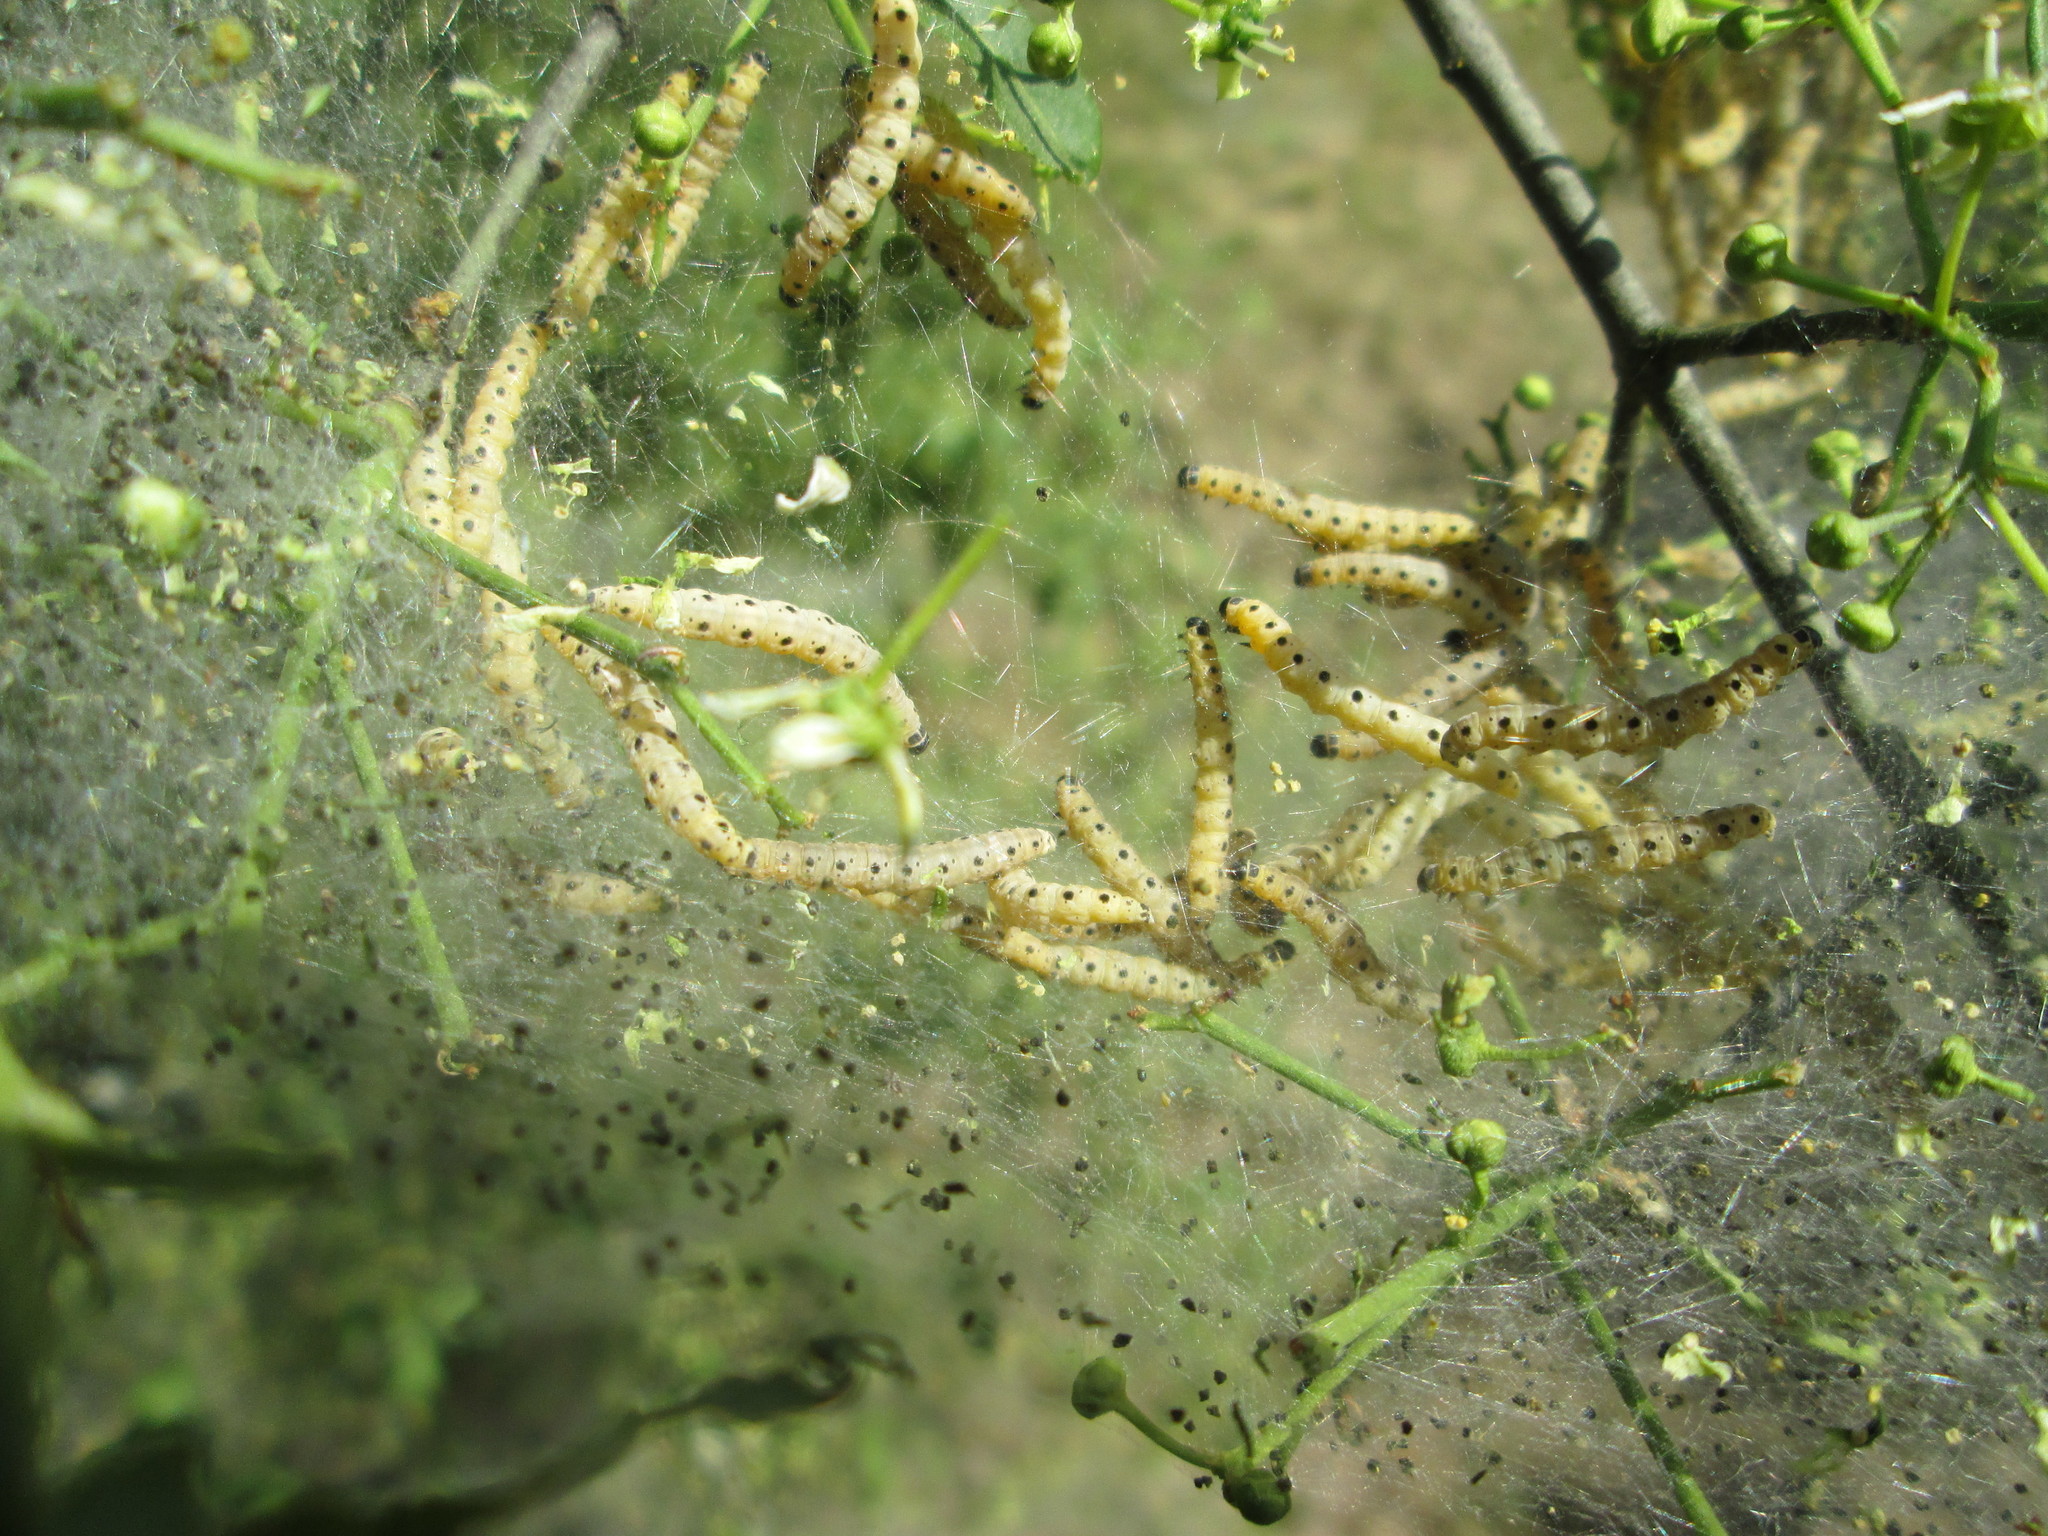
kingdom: Plantae
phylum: Tracheophyta
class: Magnoliopsida
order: Celastrales
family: Celastraceae
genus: Euonymus
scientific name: Euonymus europaeus
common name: Spindle
